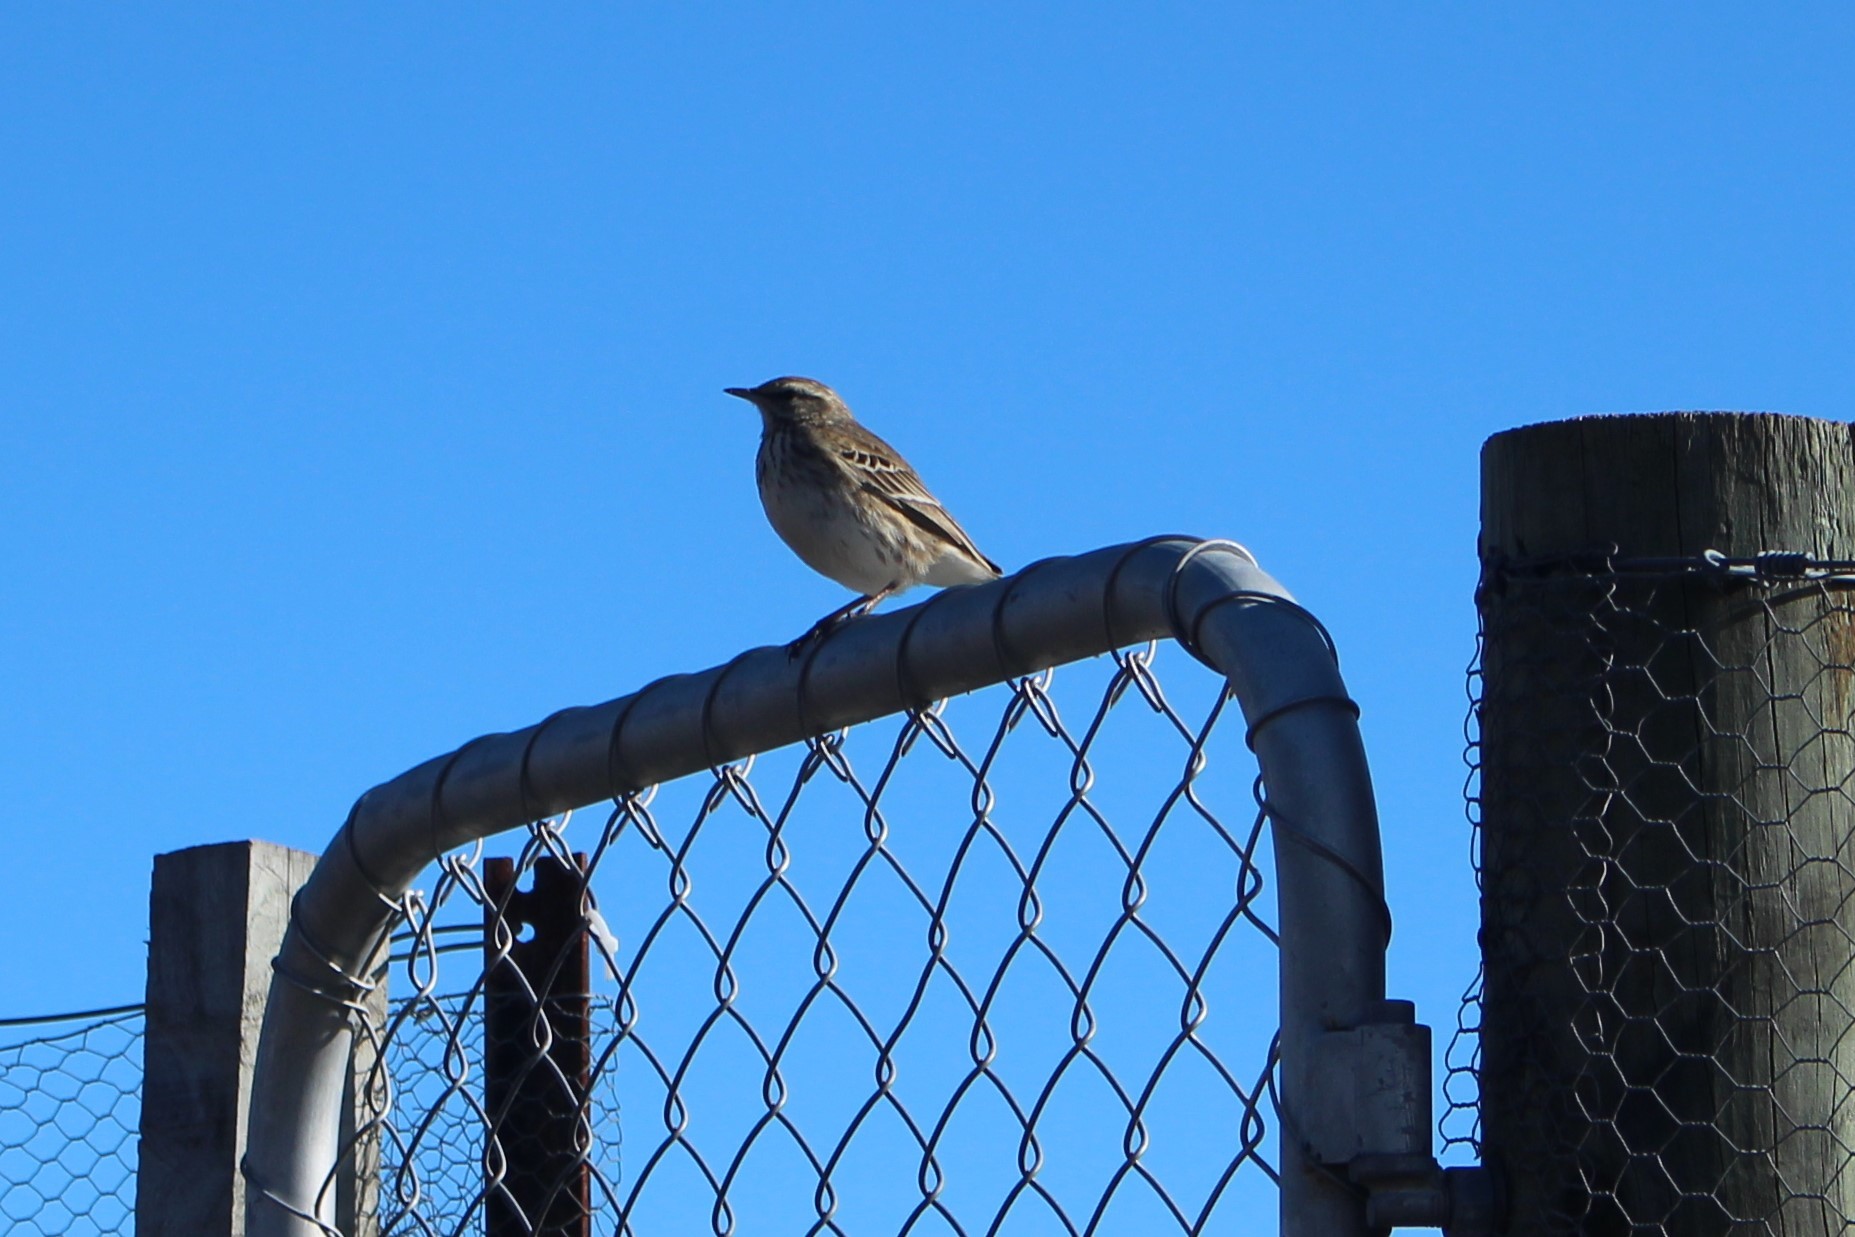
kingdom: Animalia
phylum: Chordata
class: Aves
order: Passeriformes
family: Motacillidae
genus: Anthus
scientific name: Anthus novaeseelandiae
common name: New zealand pipit
